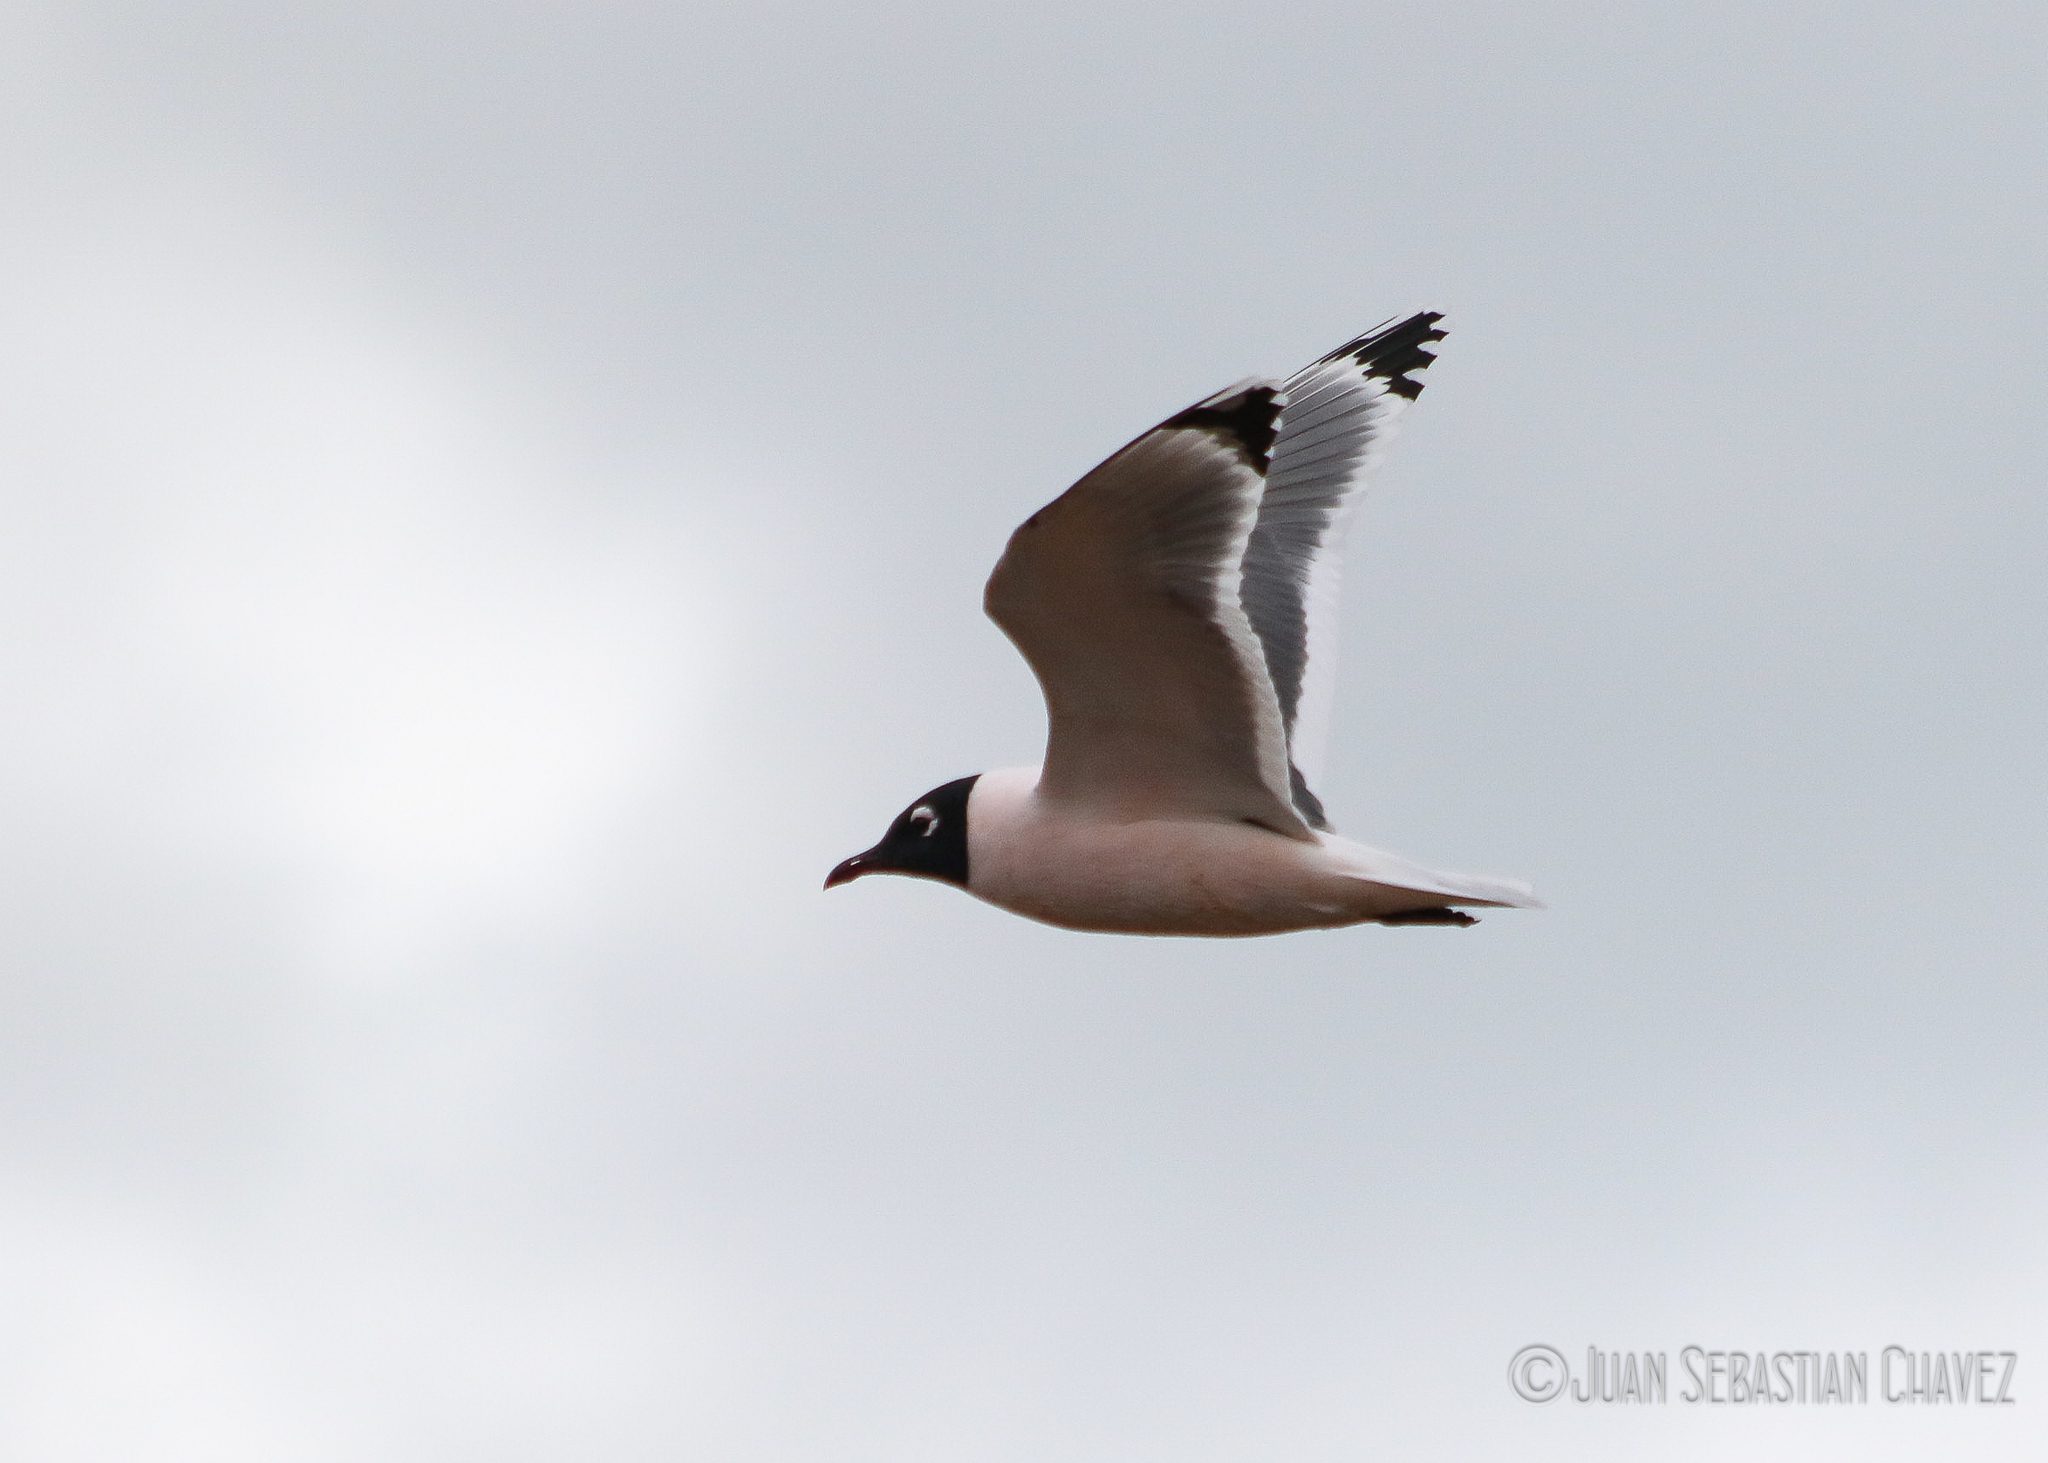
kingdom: Animalia
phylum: Chordata
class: Aves
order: Charadriiformes
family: Laridae
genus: Leucophaeus
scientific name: Leucophaeus pipixcan
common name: Franklin's gull
